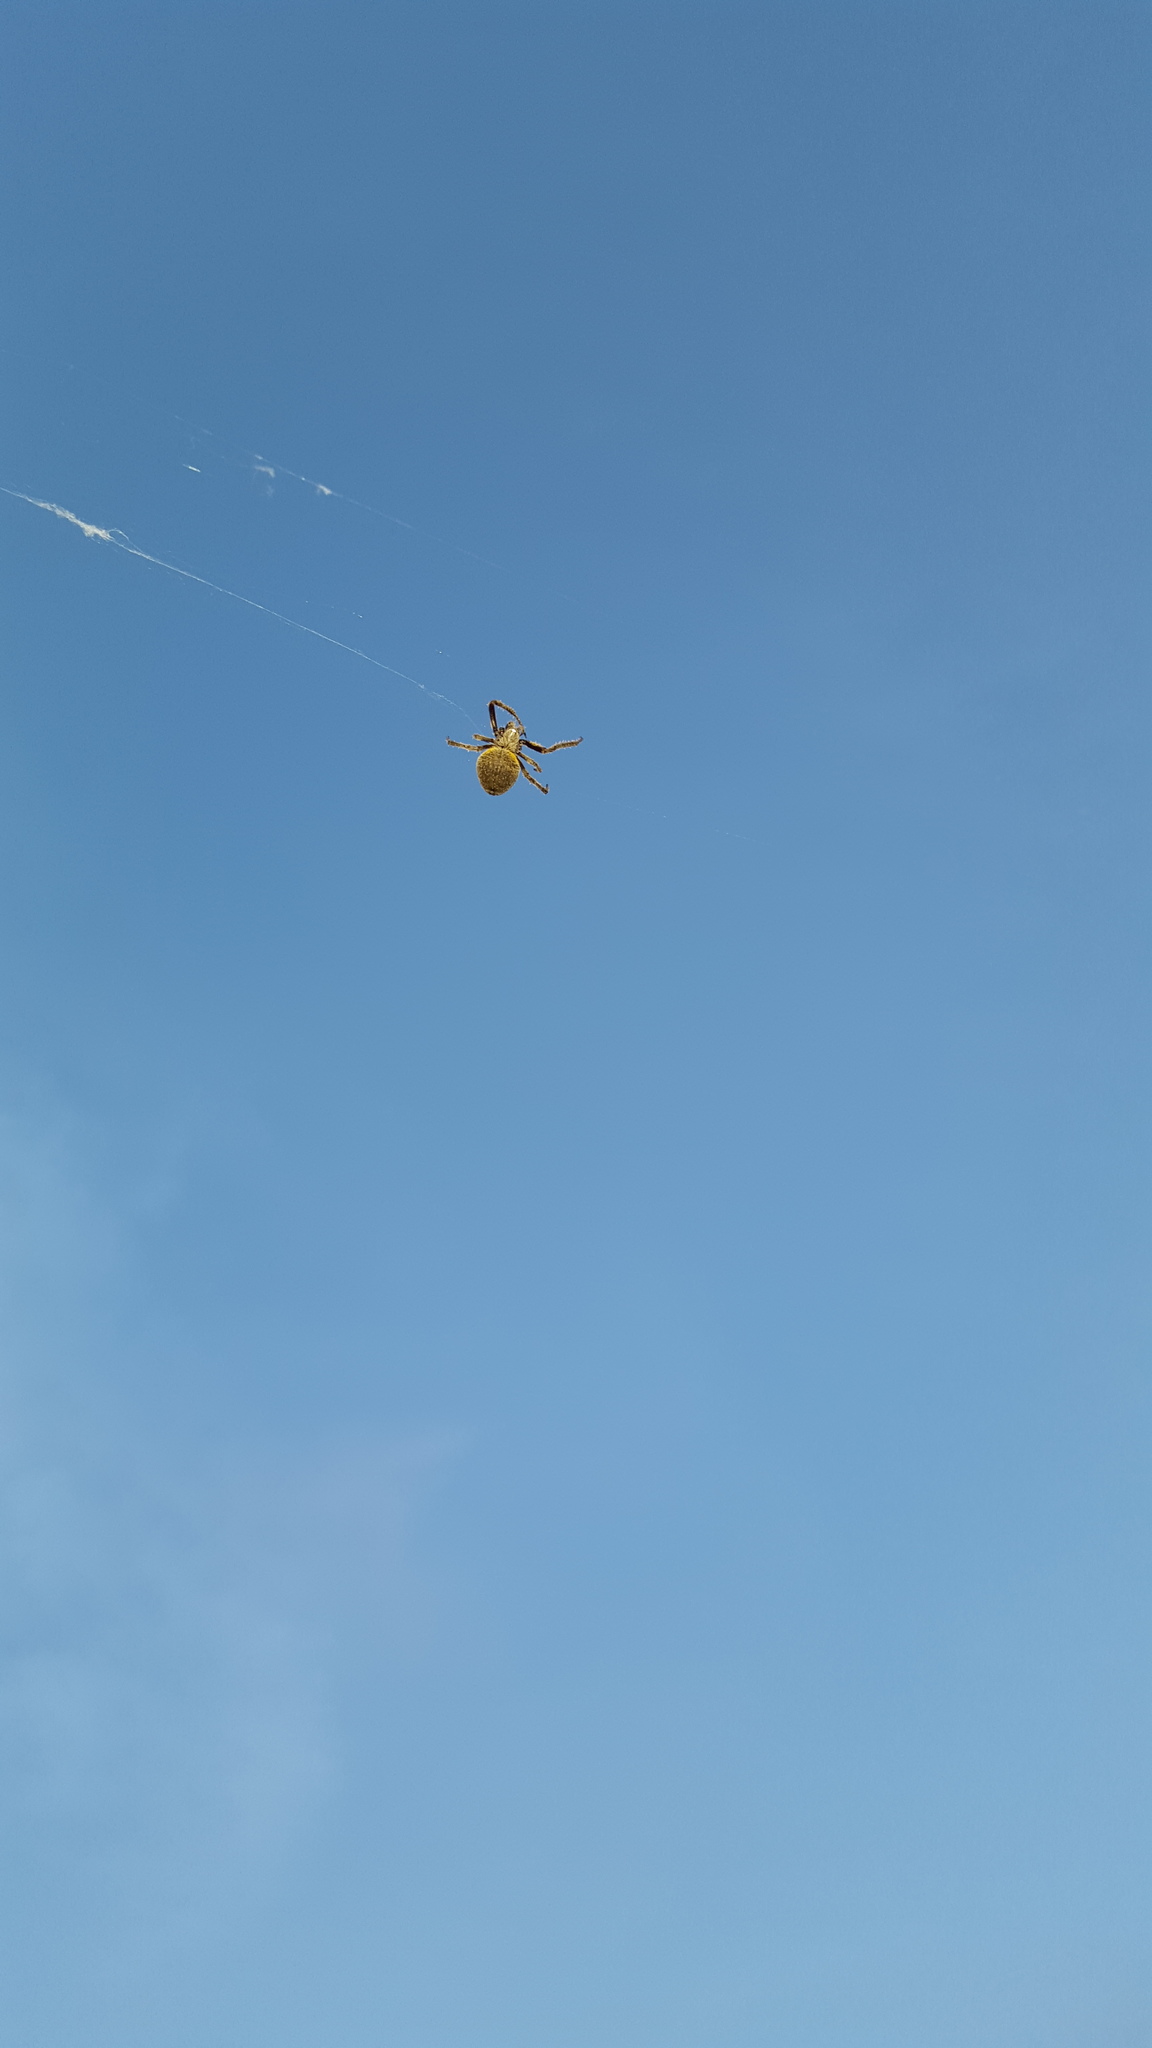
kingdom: Animalia
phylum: Arthropoda
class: Arachnida
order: Araneae
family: Araneidae
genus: Eriophora
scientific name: Eriophora ravilla
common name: Orb weavers
